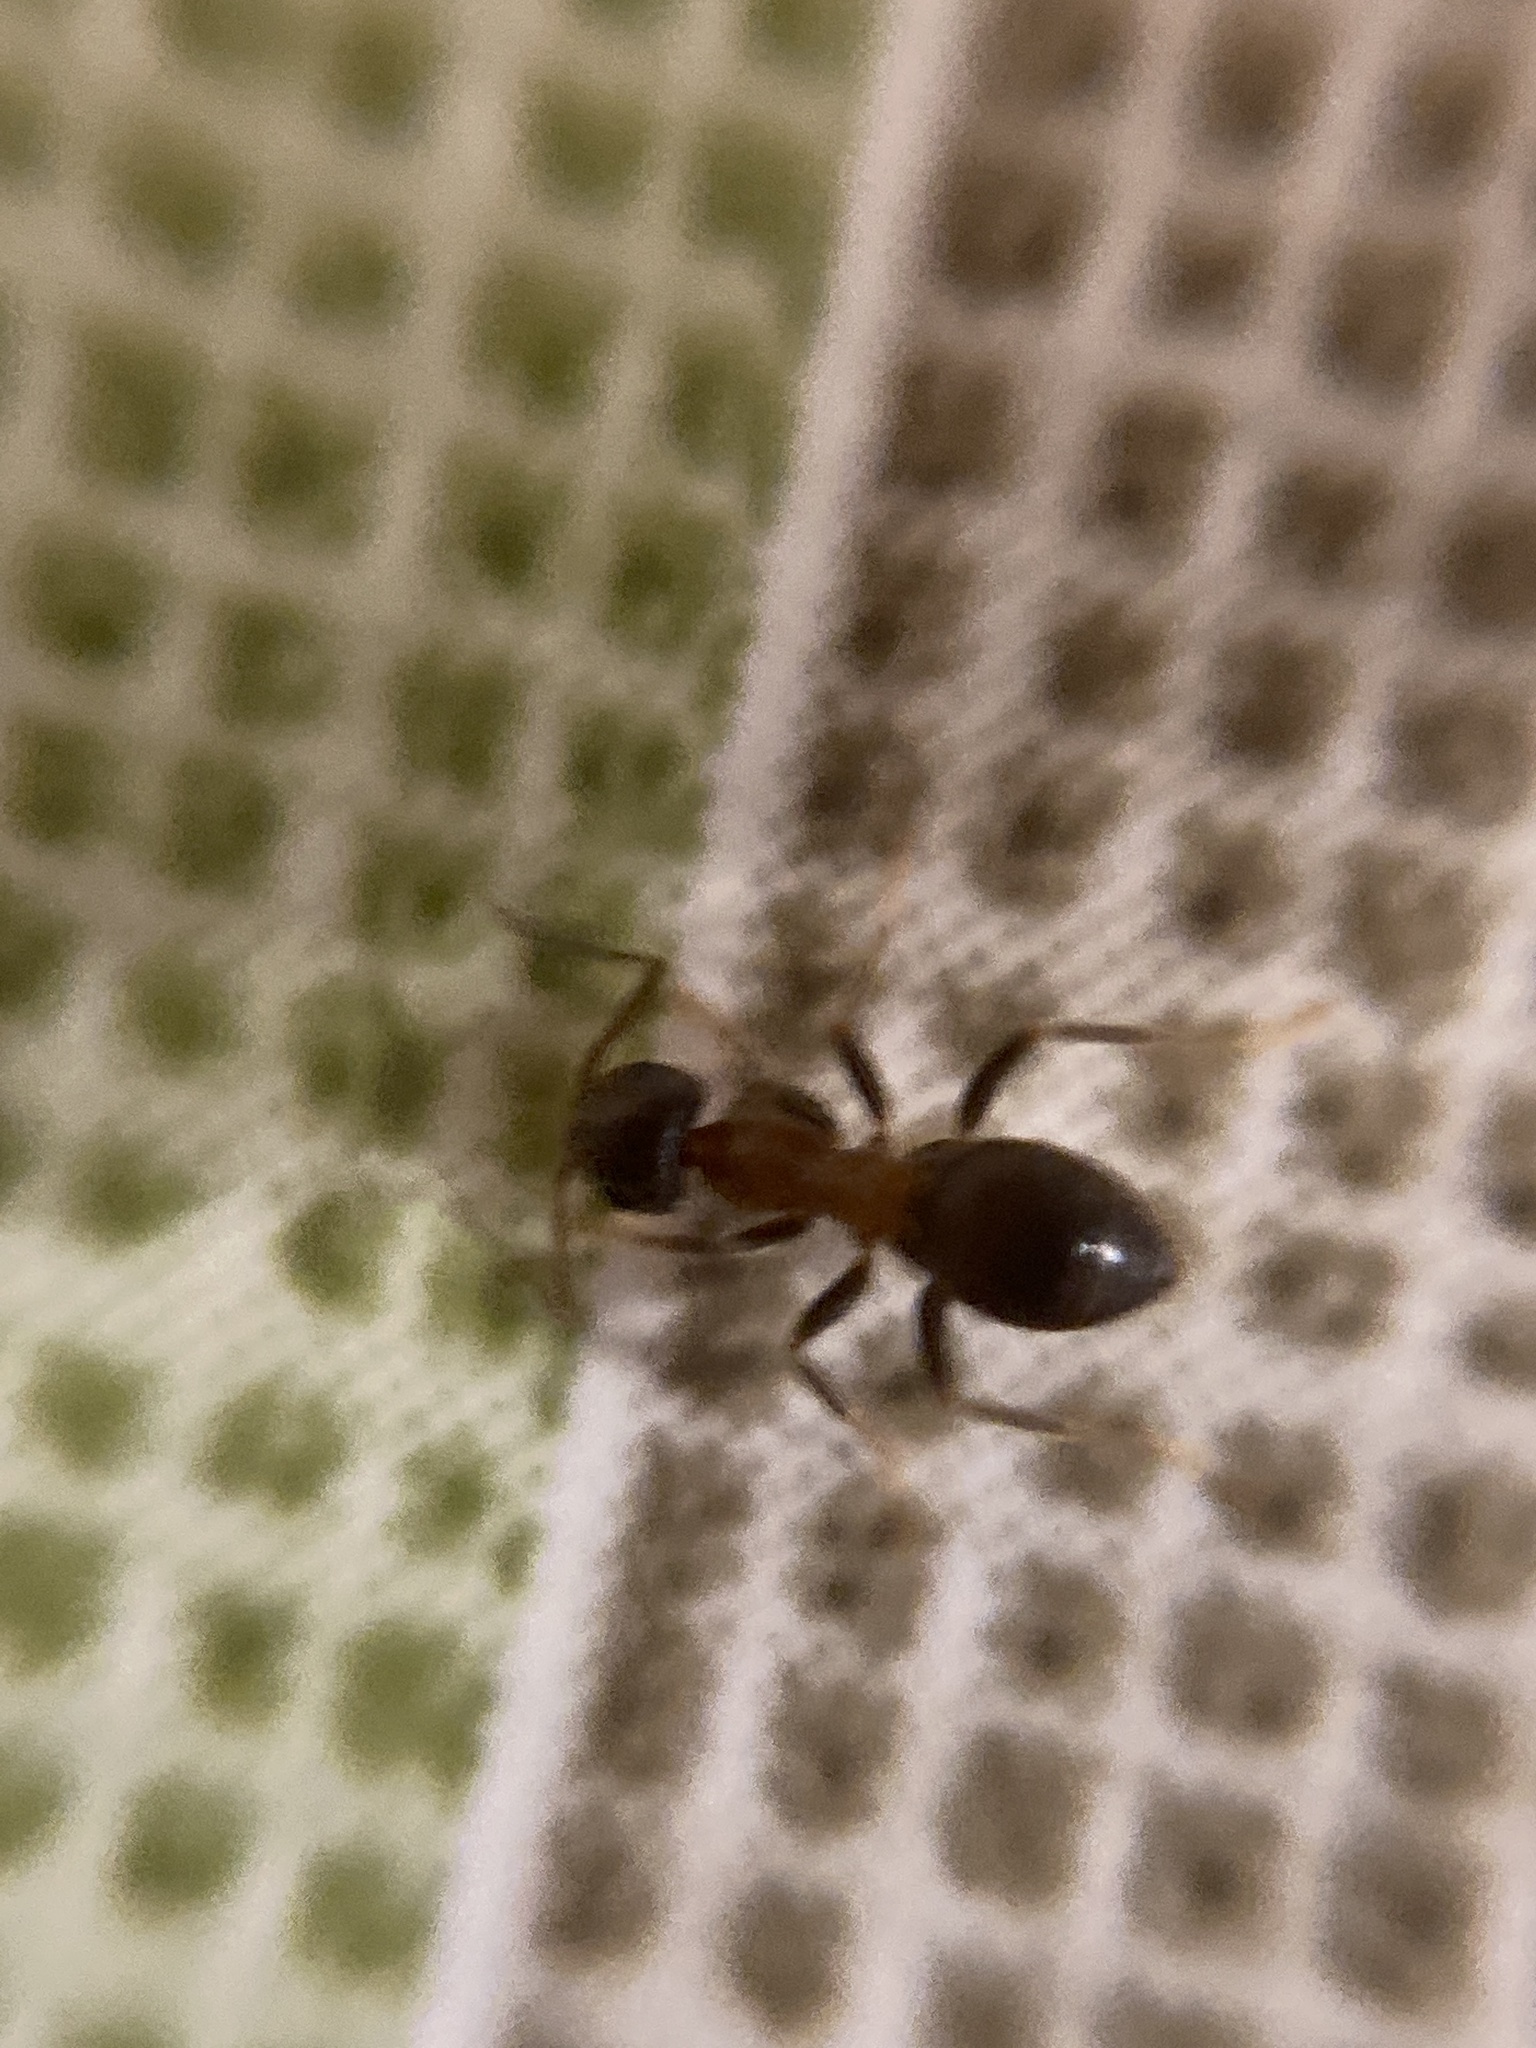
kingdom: Animalia
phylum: Arthropoda
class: Insecta
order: Hymenoptera
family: Formicidae
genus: Lasius
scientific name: Lasius emarginatus
